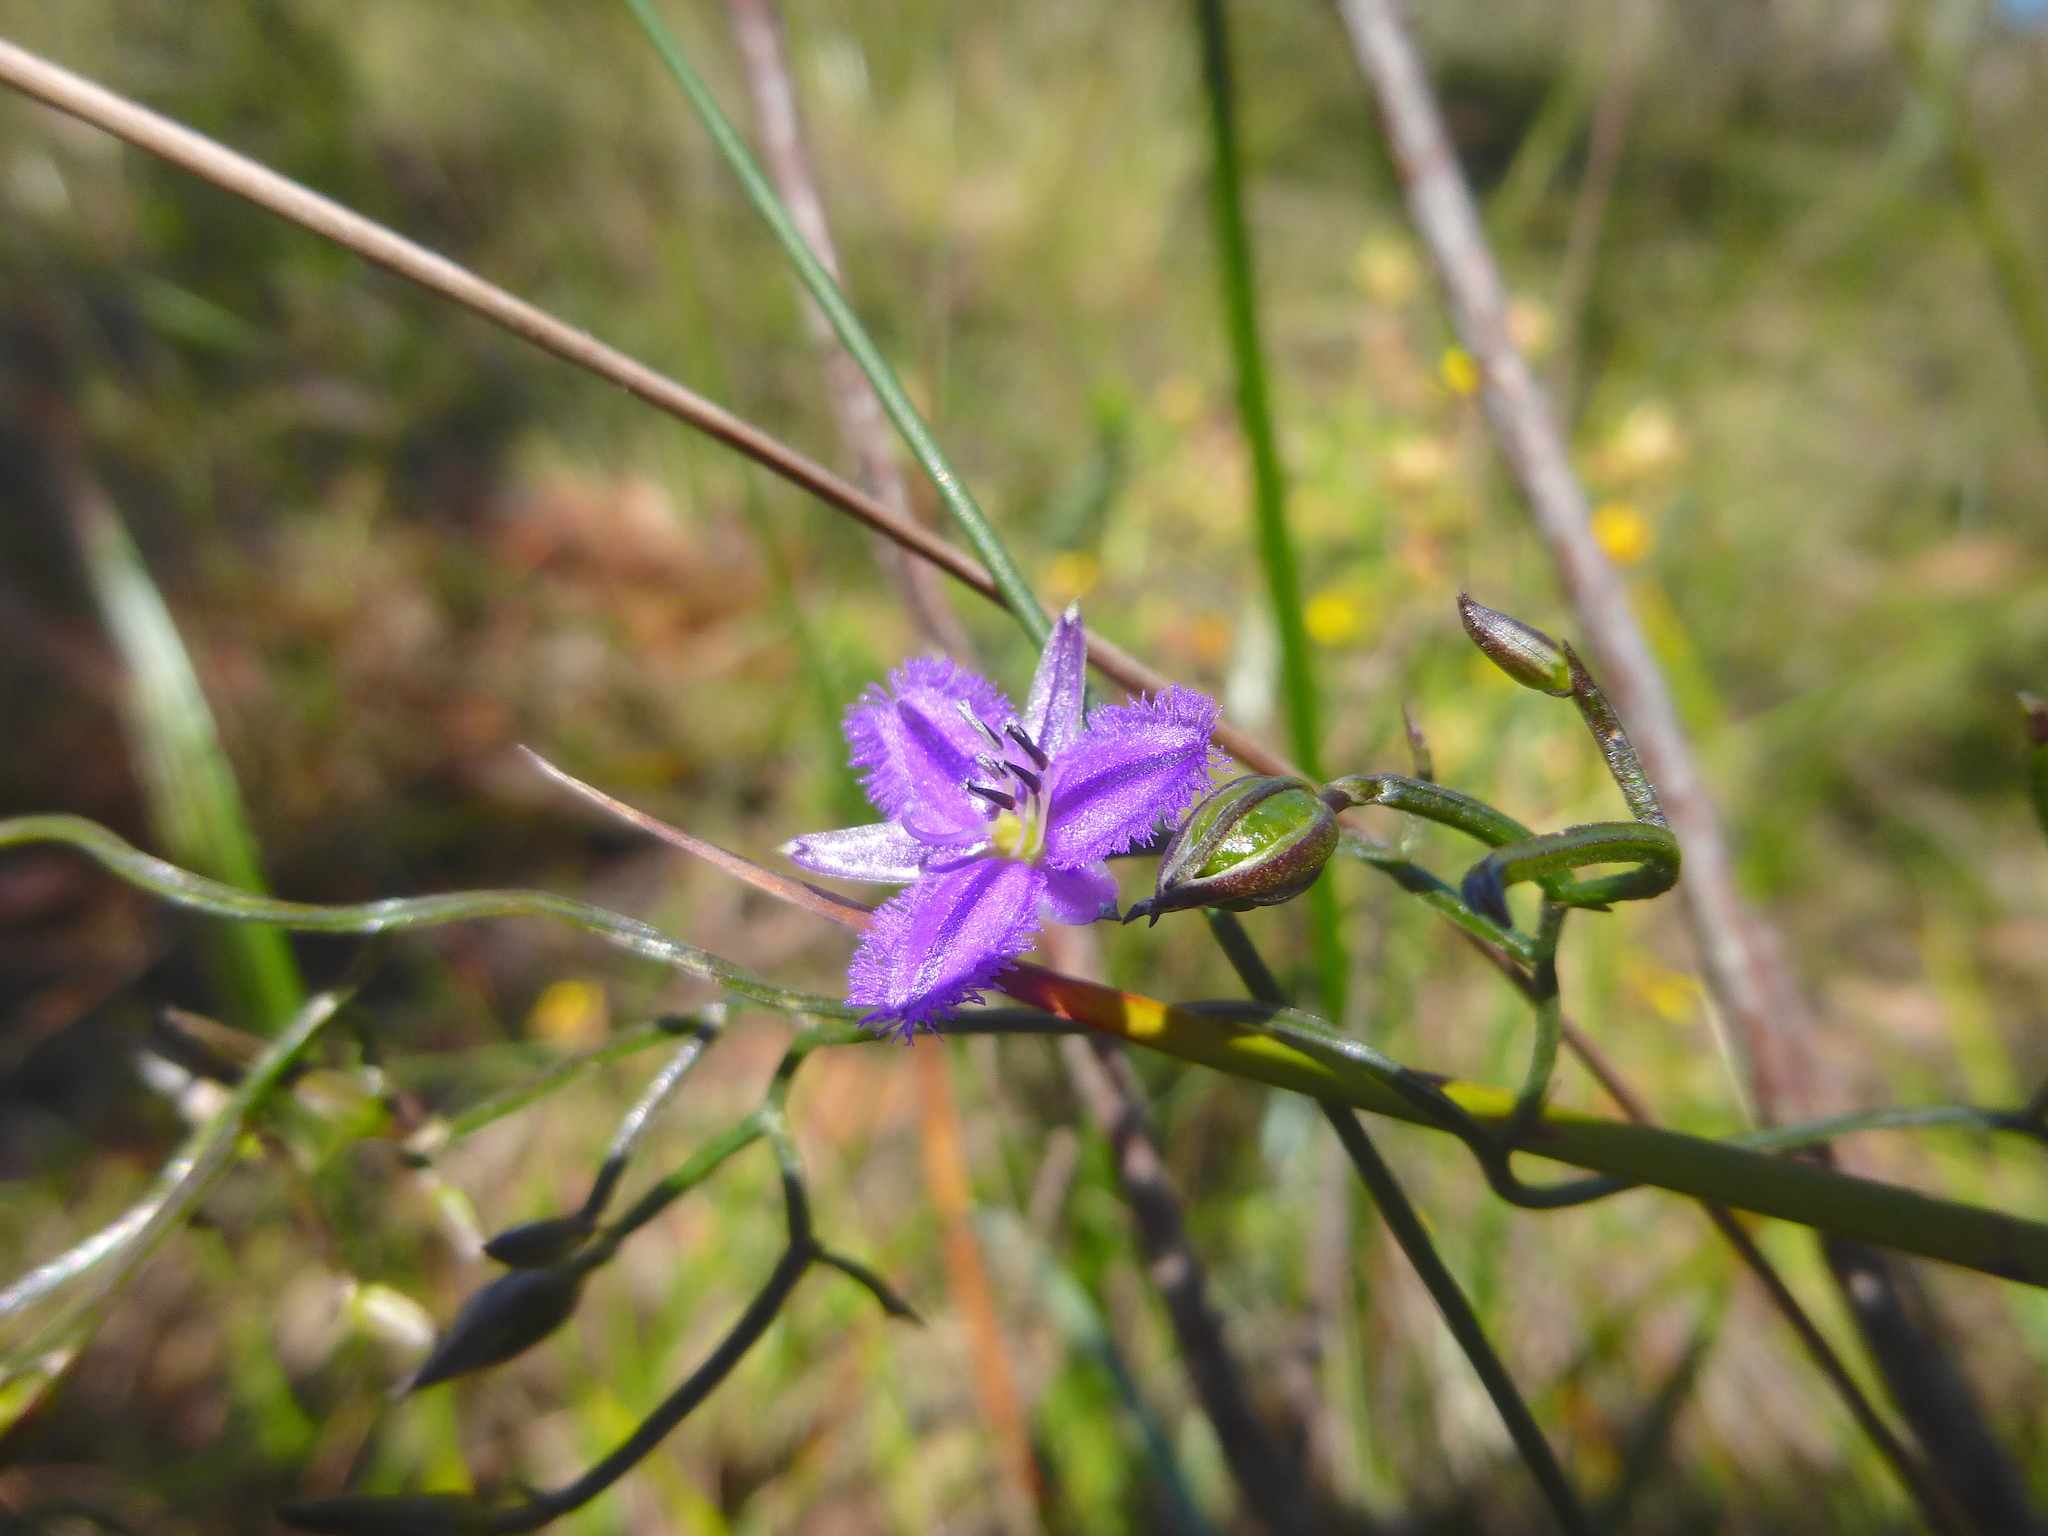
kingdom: Plantae
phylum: Tracheophyta
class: Liliopsida
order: Asparagales
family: Asparagaceae
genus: Thysanotus
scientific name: Thysanotus patersonii
